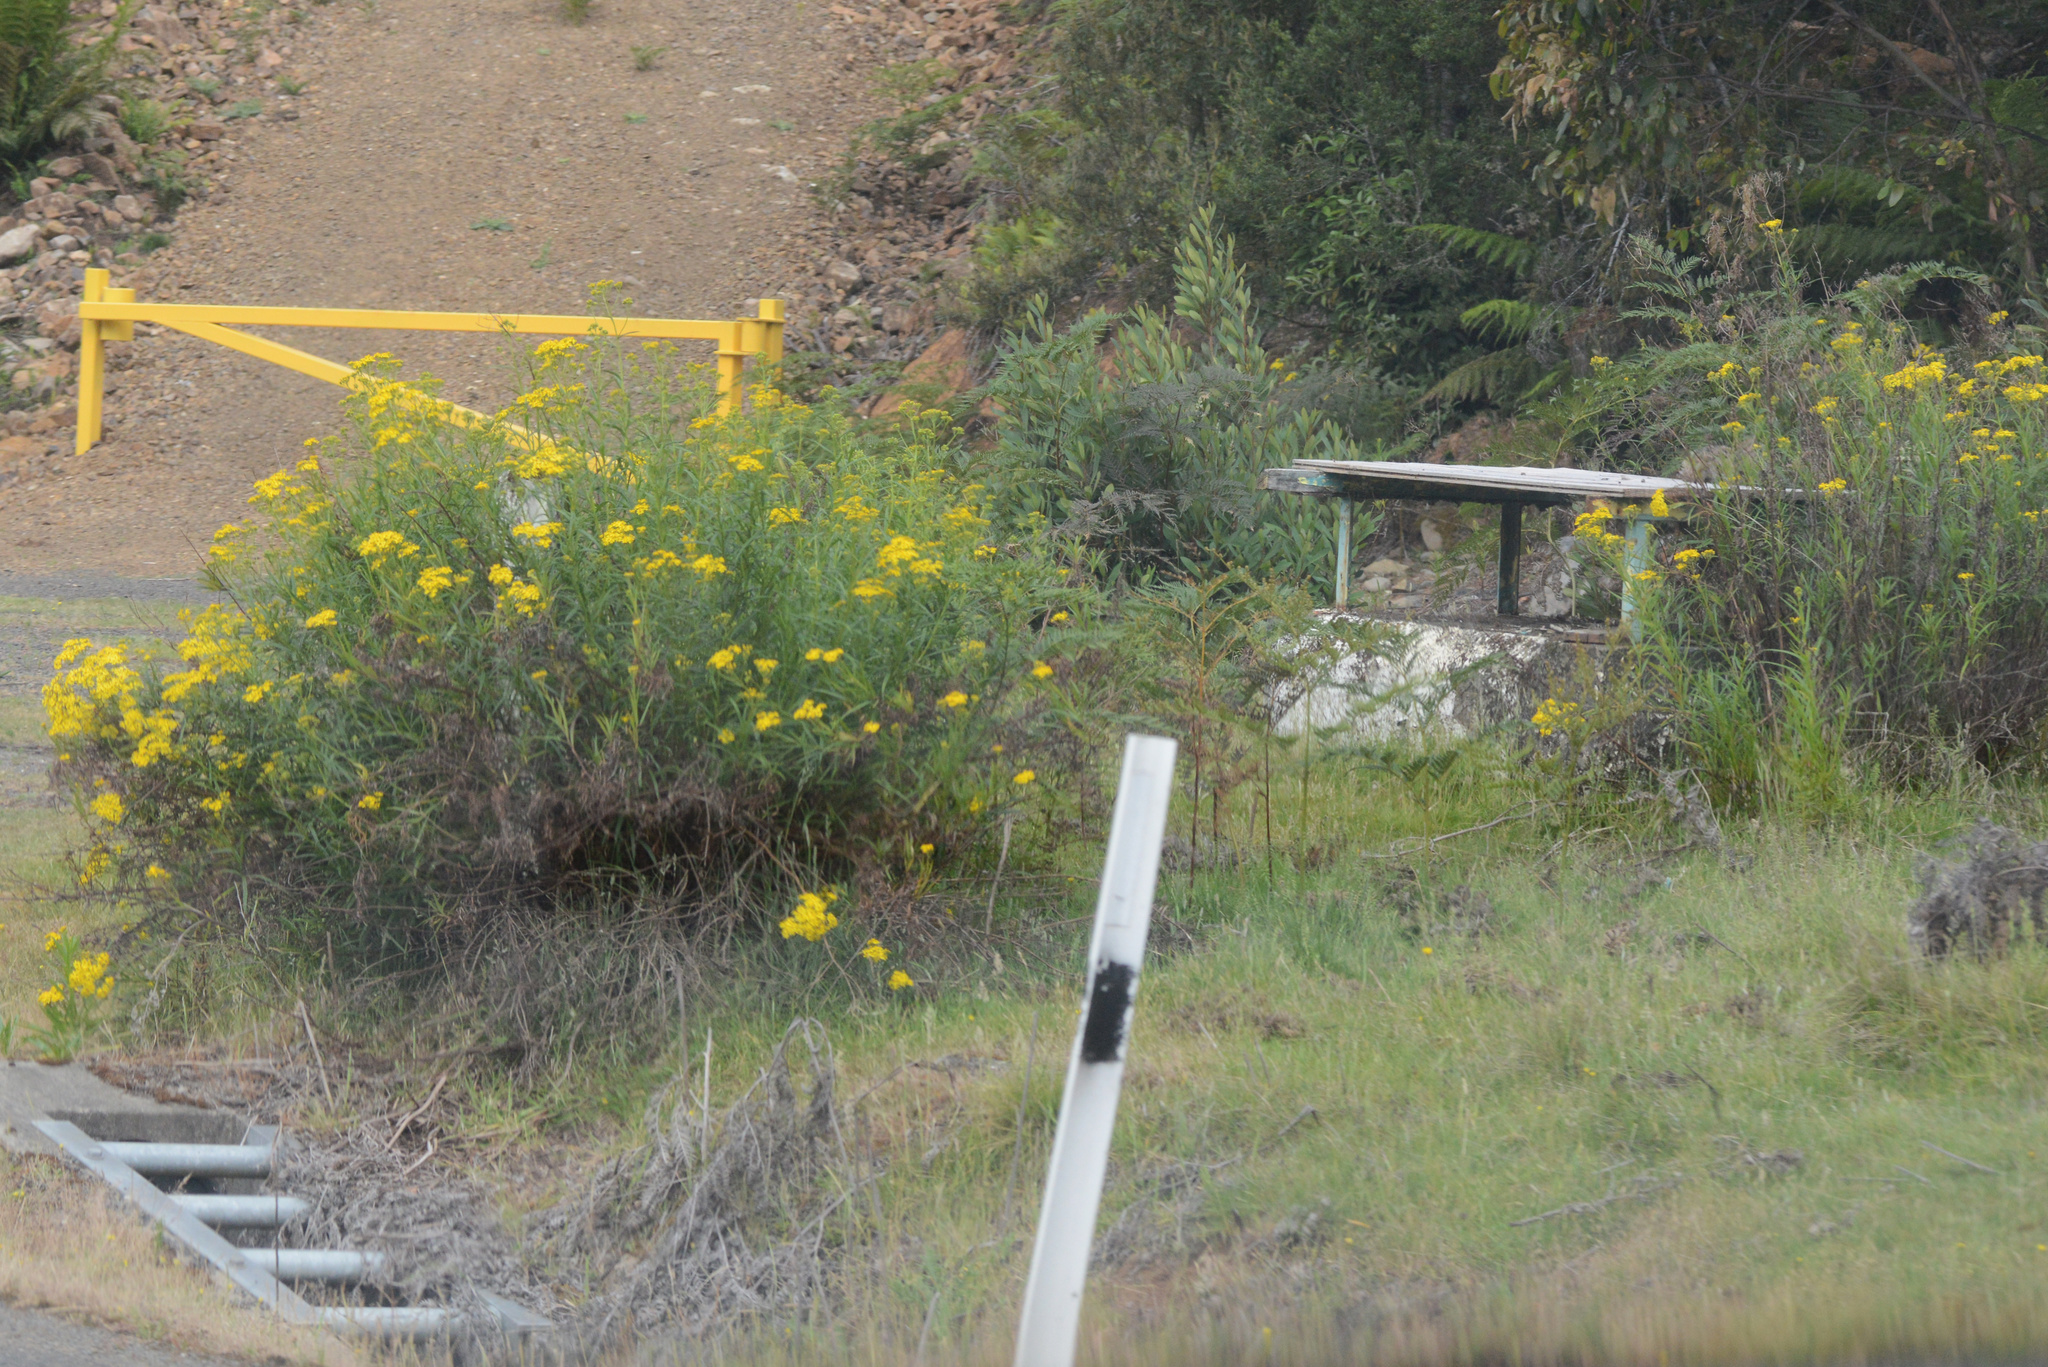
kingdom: Plantae
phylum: Tracheophyta
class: Magnoliopsida
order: Asterales
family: Asteraceae
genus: Senecio
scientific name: Senecio linearifolius
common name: Fireweed groundsel
